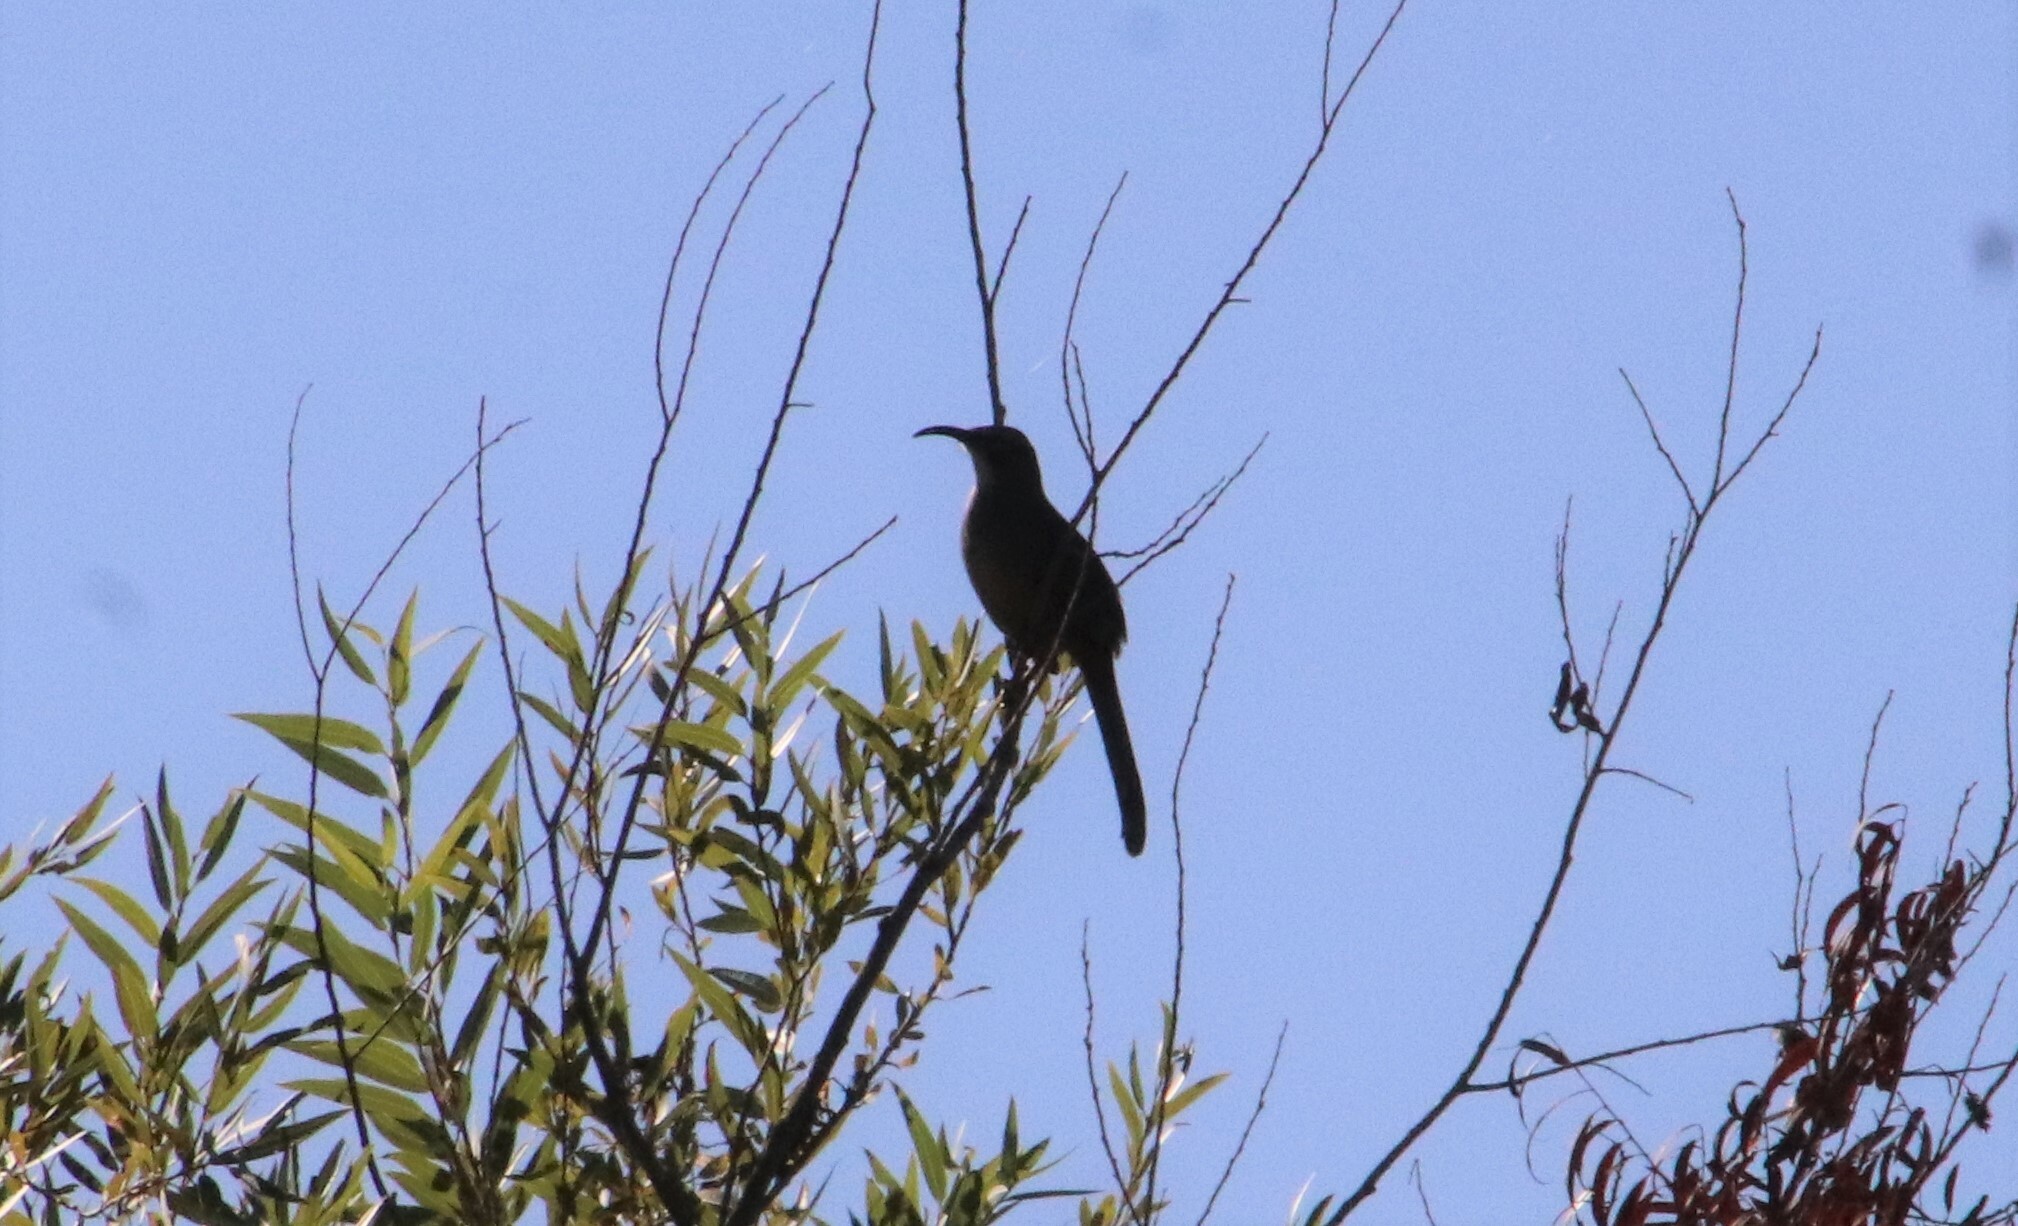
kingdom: Animalia
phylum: Chordata
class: Aves
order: Passeriformes
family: Mimidae
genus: Toxostoma
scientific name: Toxostoma redivivum
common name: California thrasher
